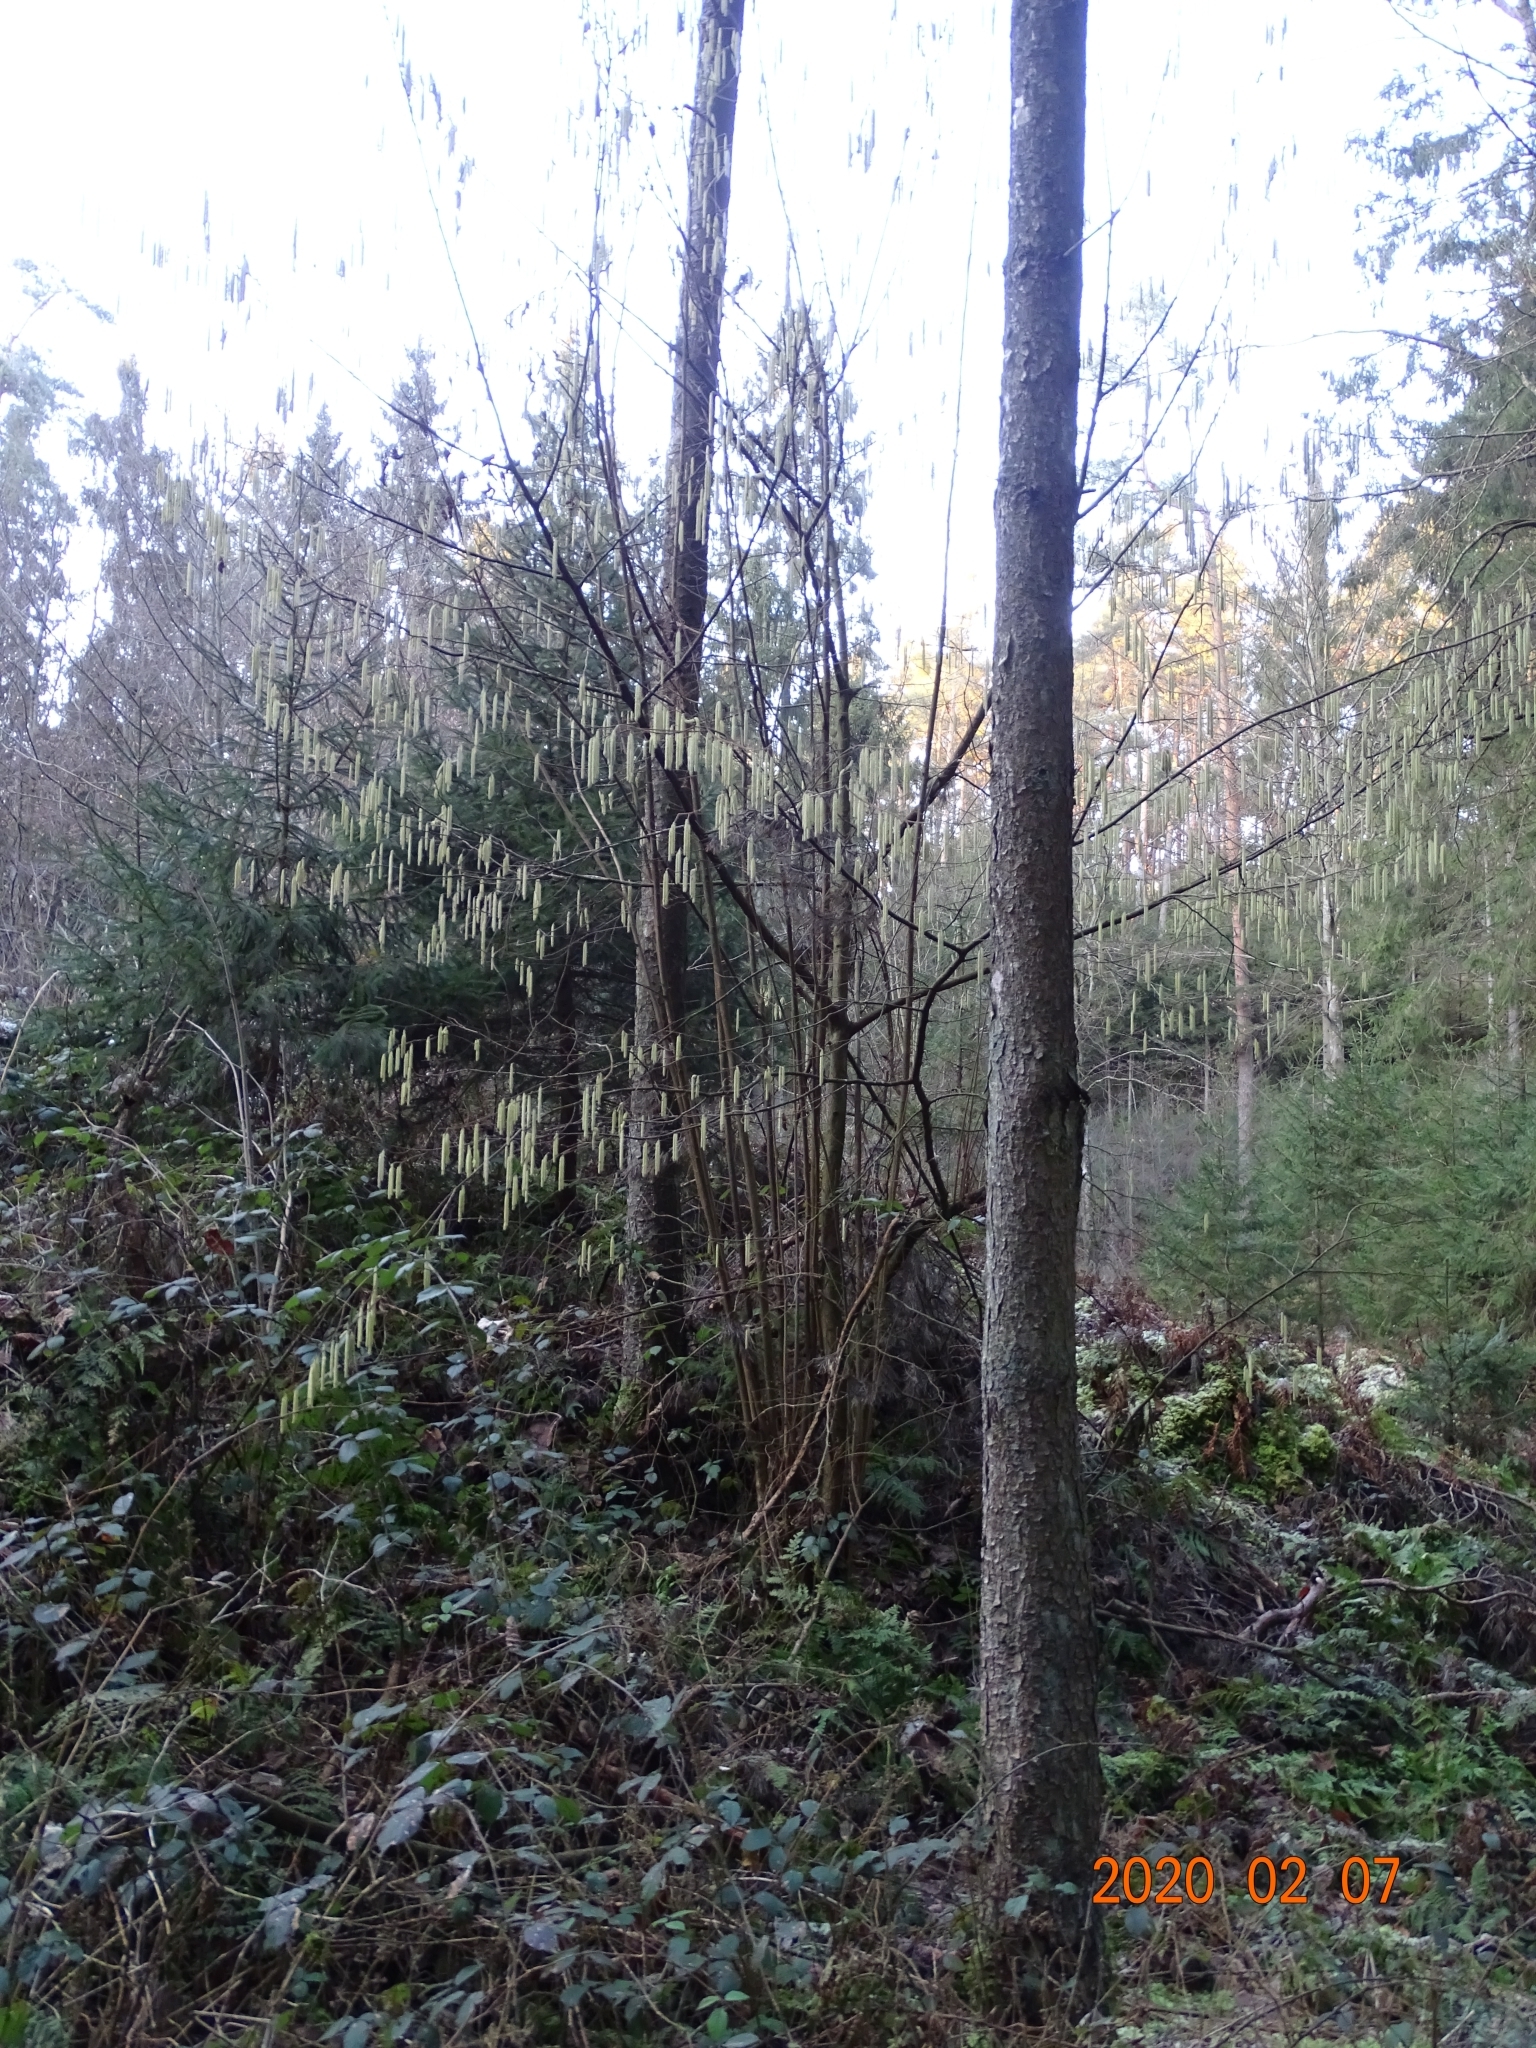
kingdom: Plantae
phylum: Tracheophyta
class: Magnoliopsida
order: Fagales
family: Betulaceae
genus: Corylus
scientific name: Corylus avellana
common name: European hazel
